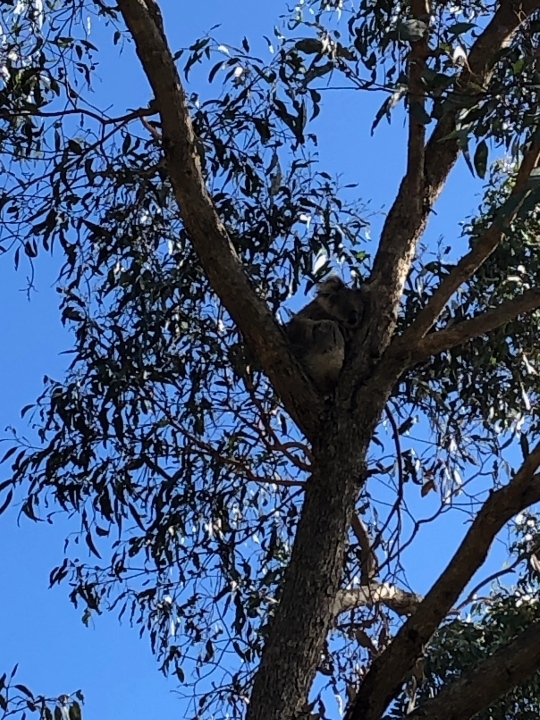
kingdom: Animalia
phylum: Chordata
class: Mammalia
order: Diprotodontia
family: Phascolarctidae
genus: Phascolarctos
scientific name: Phascolarctos cinereus
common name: Koala
